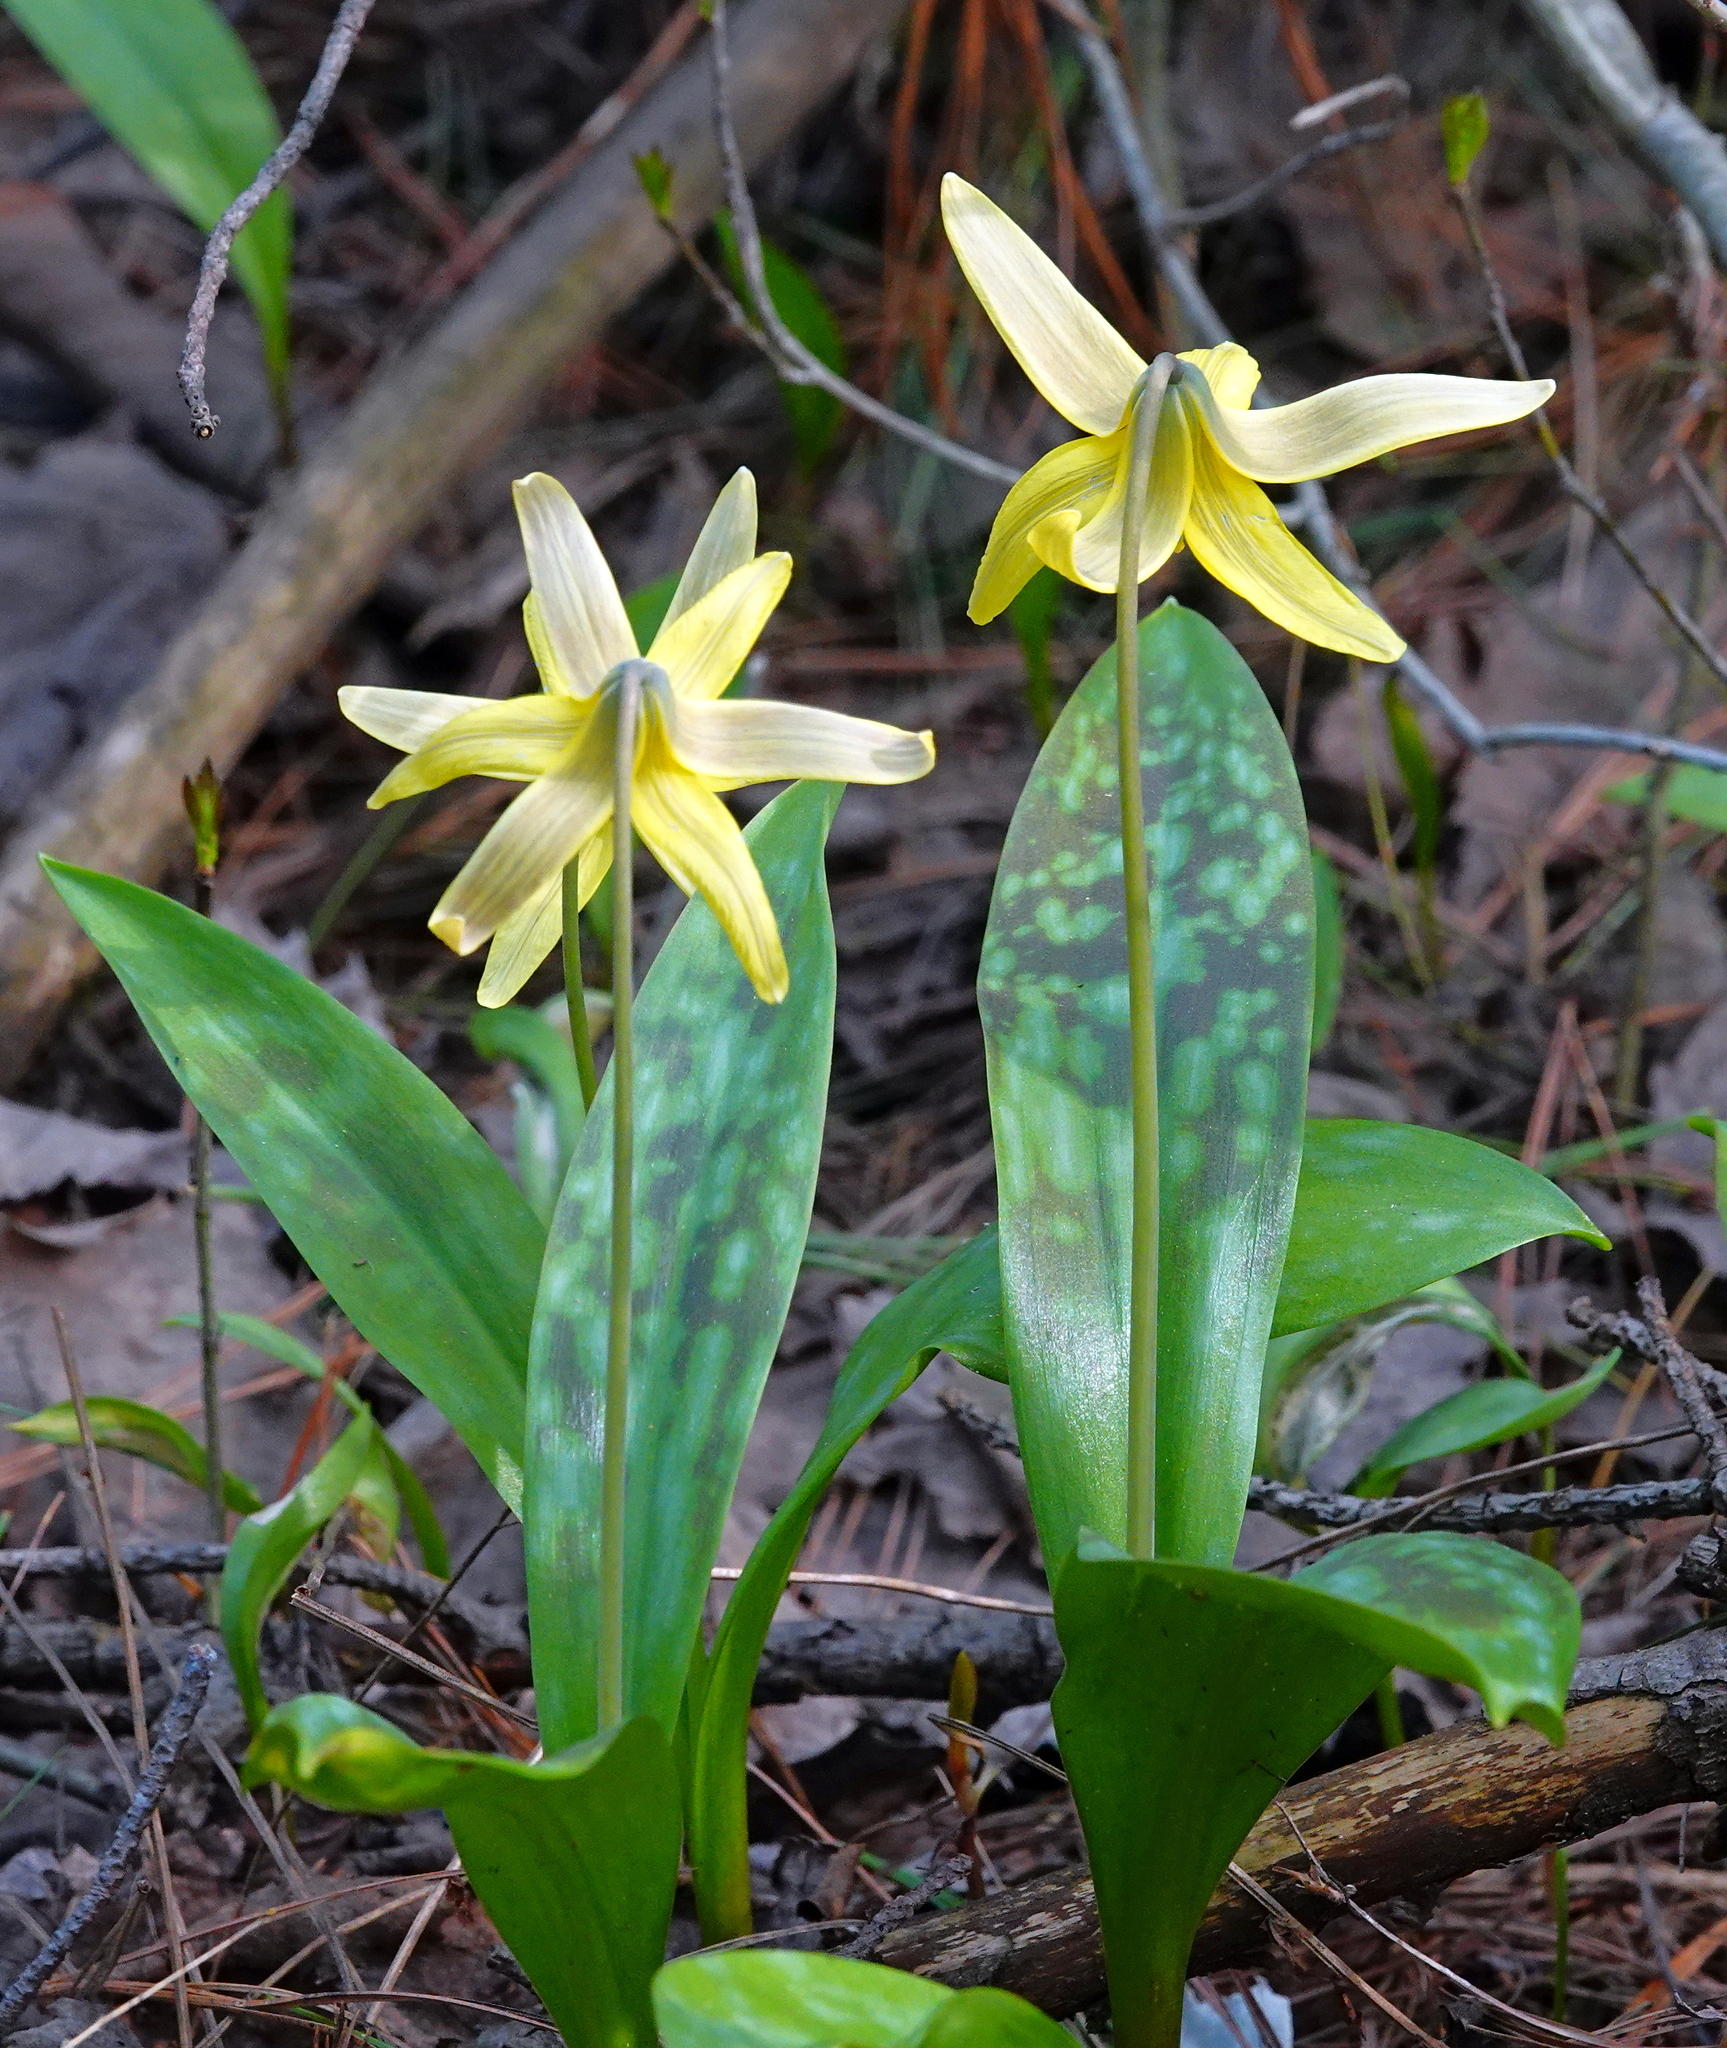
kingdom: Plantae
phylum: Tracheophyta
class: Liliopsida
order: Liliales
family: Liliaceae
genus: Erythronium
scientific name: Erythronium americanum
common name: Yellow adder's-tongue
